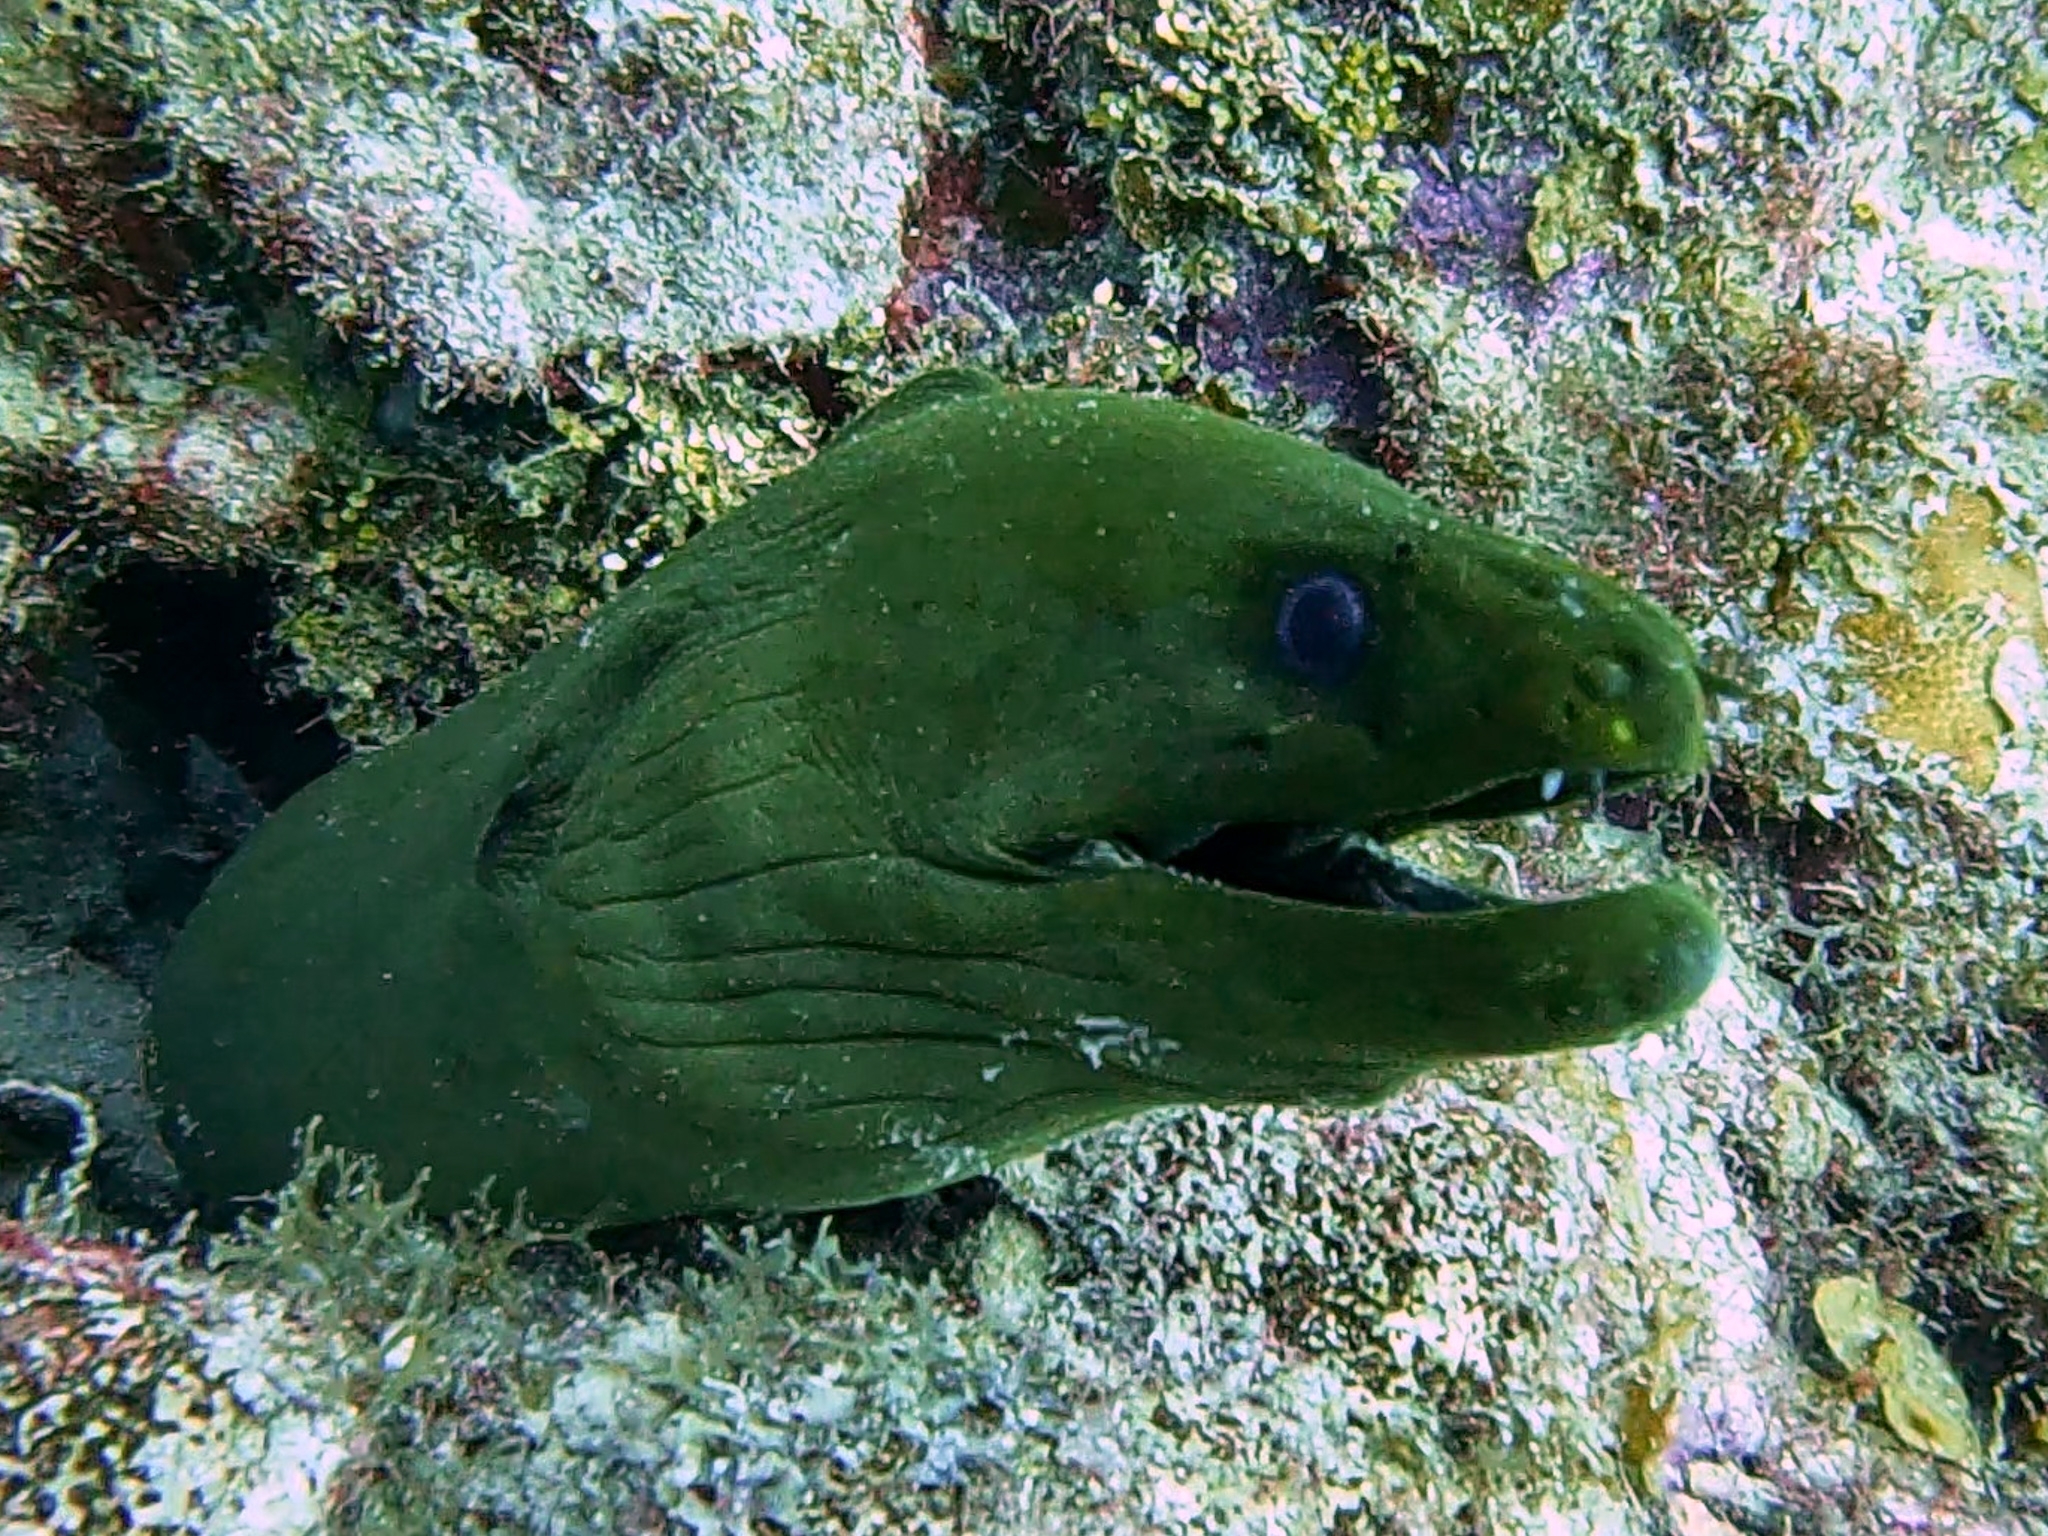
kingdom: Animalia
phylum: Chordata
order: Anguilliformes
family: Muraenidae
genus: Gymnothorax
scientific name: Gymnothorax funebris
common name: Green moray
